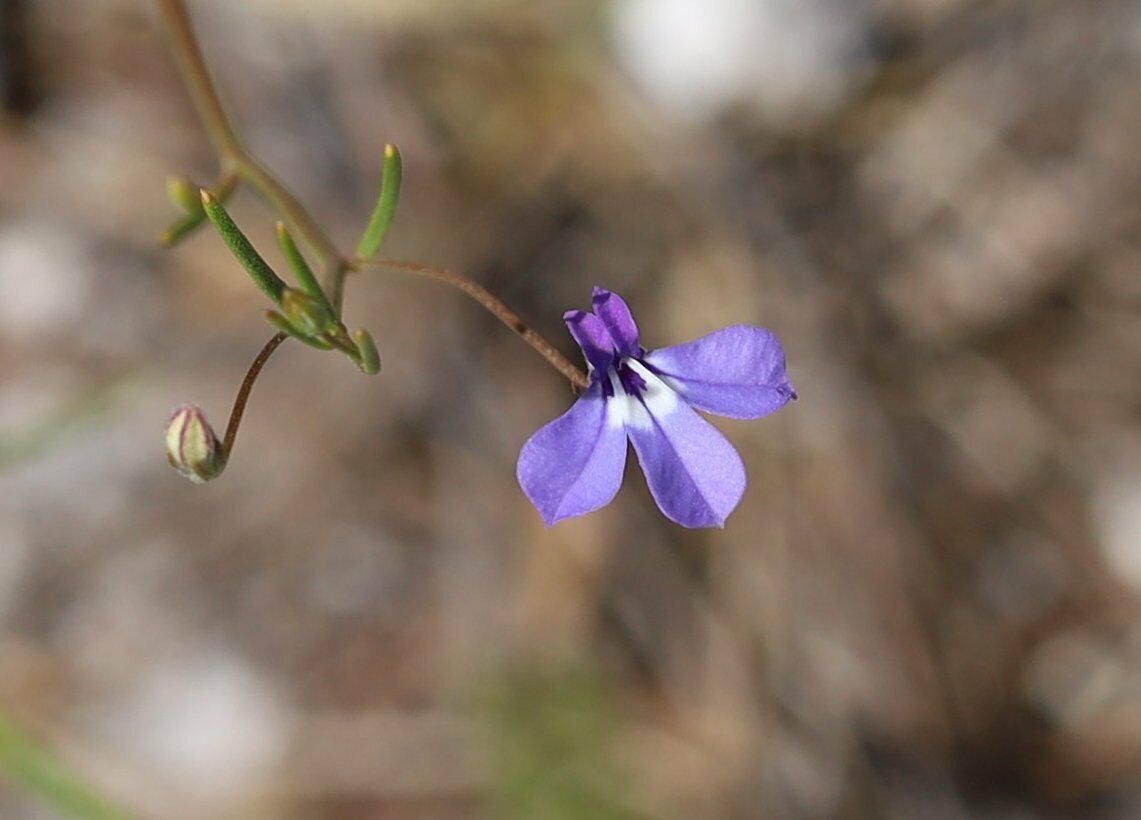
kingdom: Plantae
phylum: Tracheophyta
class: Magnoliopsida
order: Asterales
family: Campanulaceae
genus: Lobelia
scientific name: Lobelia setacea
